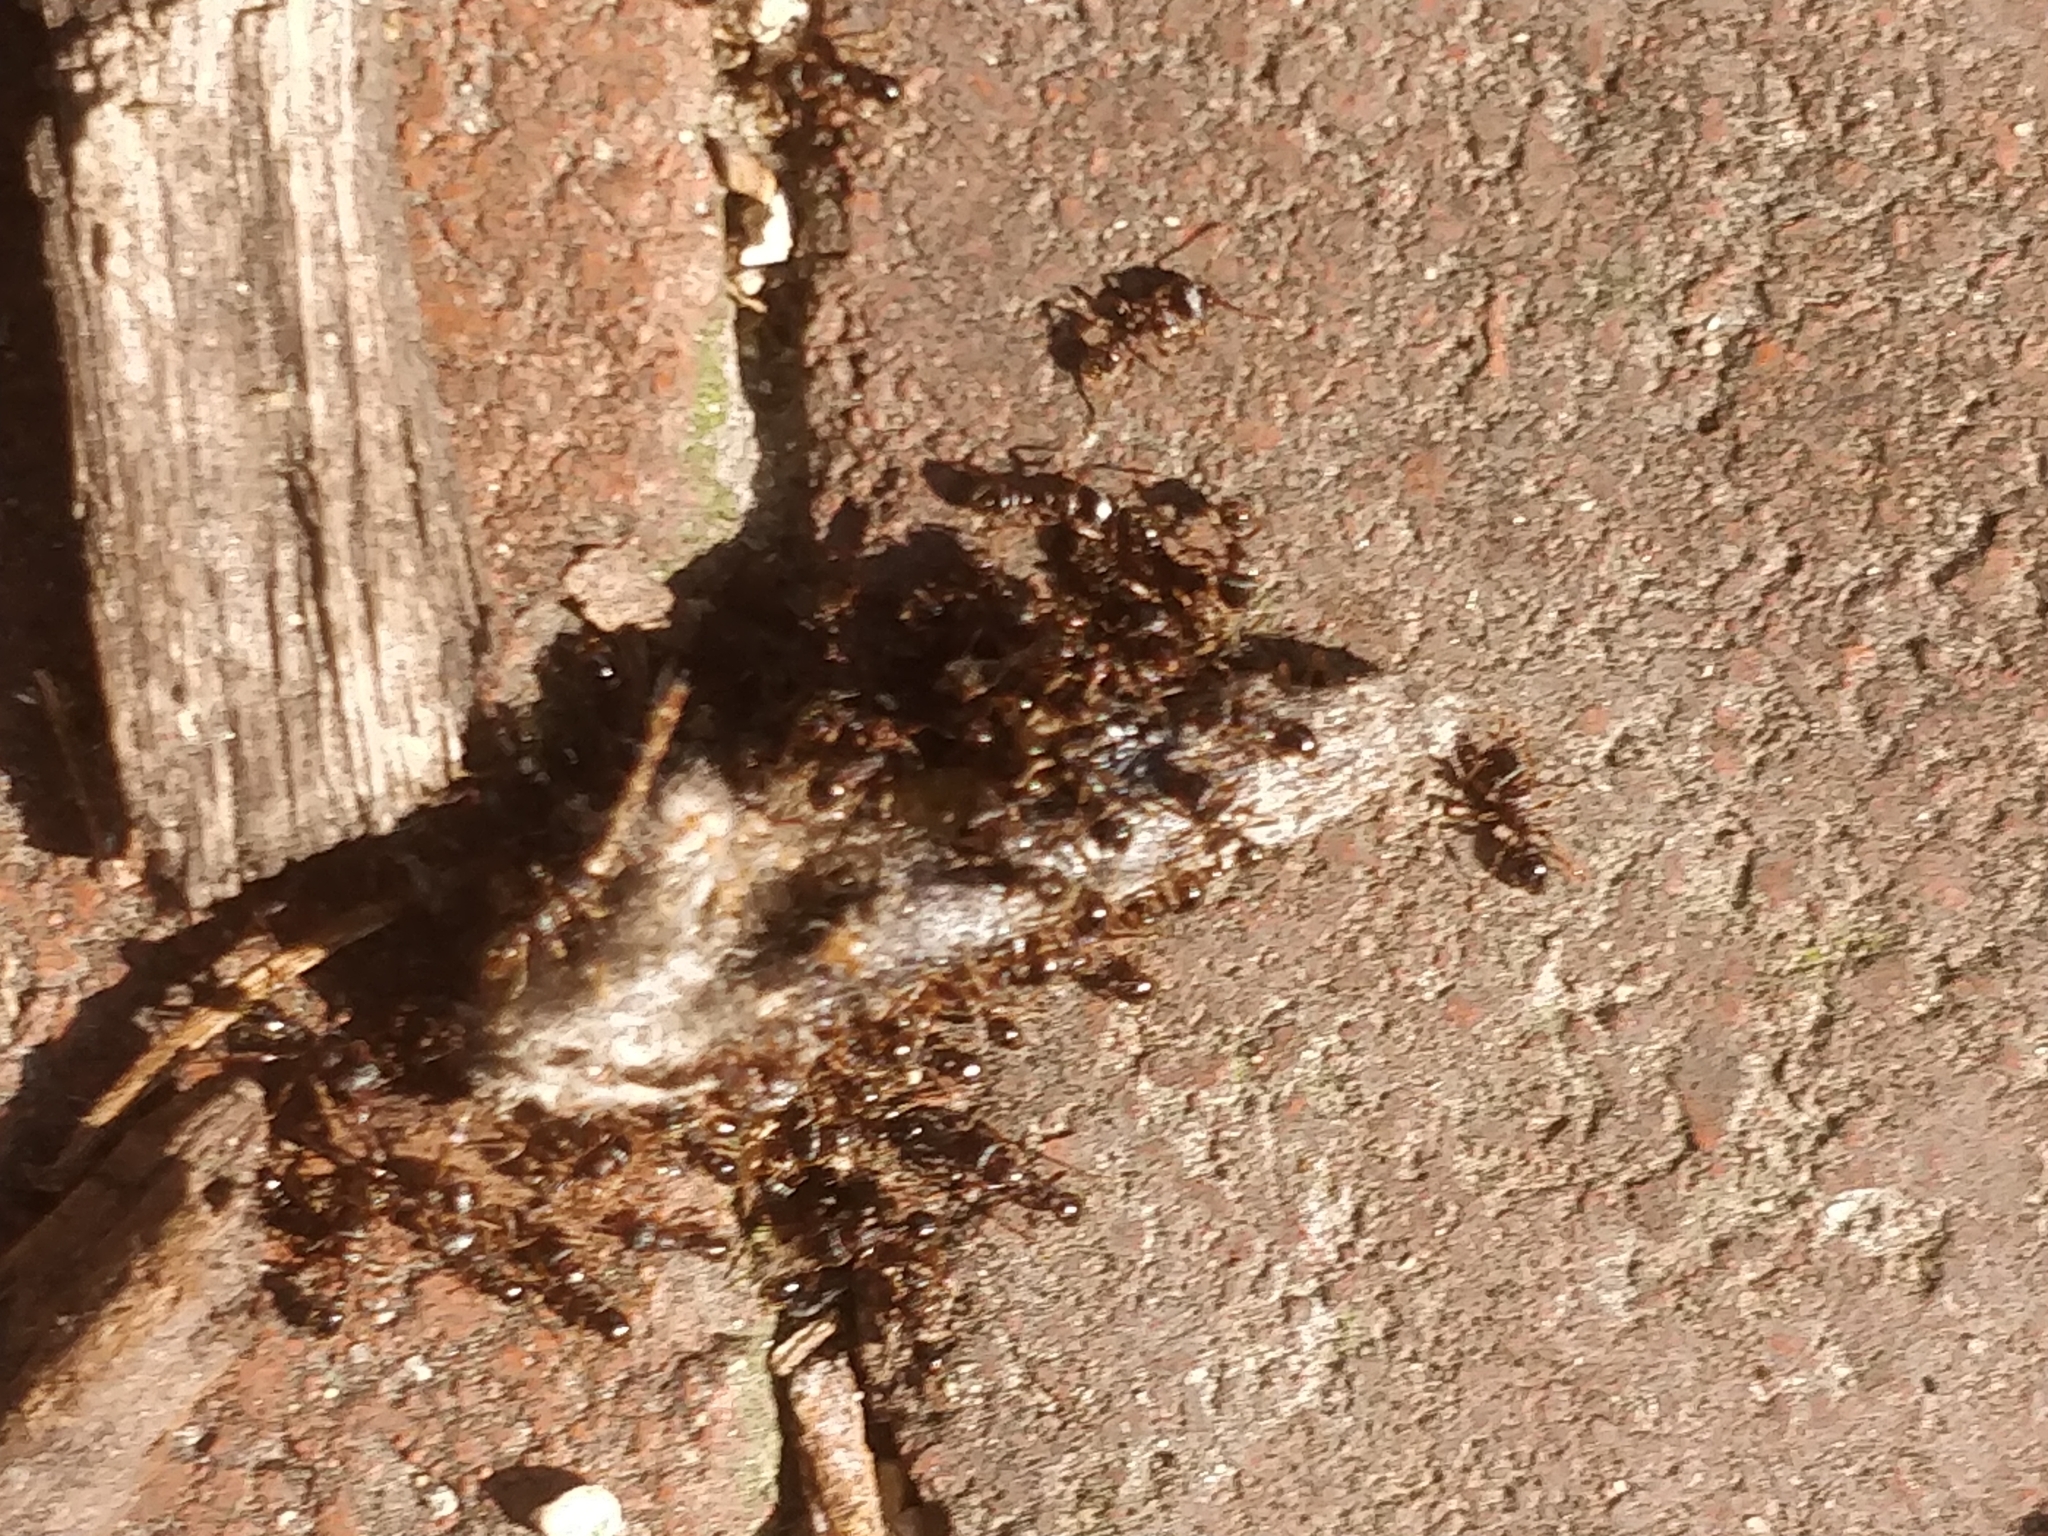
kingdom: Animalia
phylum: Arthropoda
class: Insecta
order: Hymenoptera
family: Formicidae
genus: Tetramorium
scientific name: Tetramorium immigrans
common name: Pavement ant
